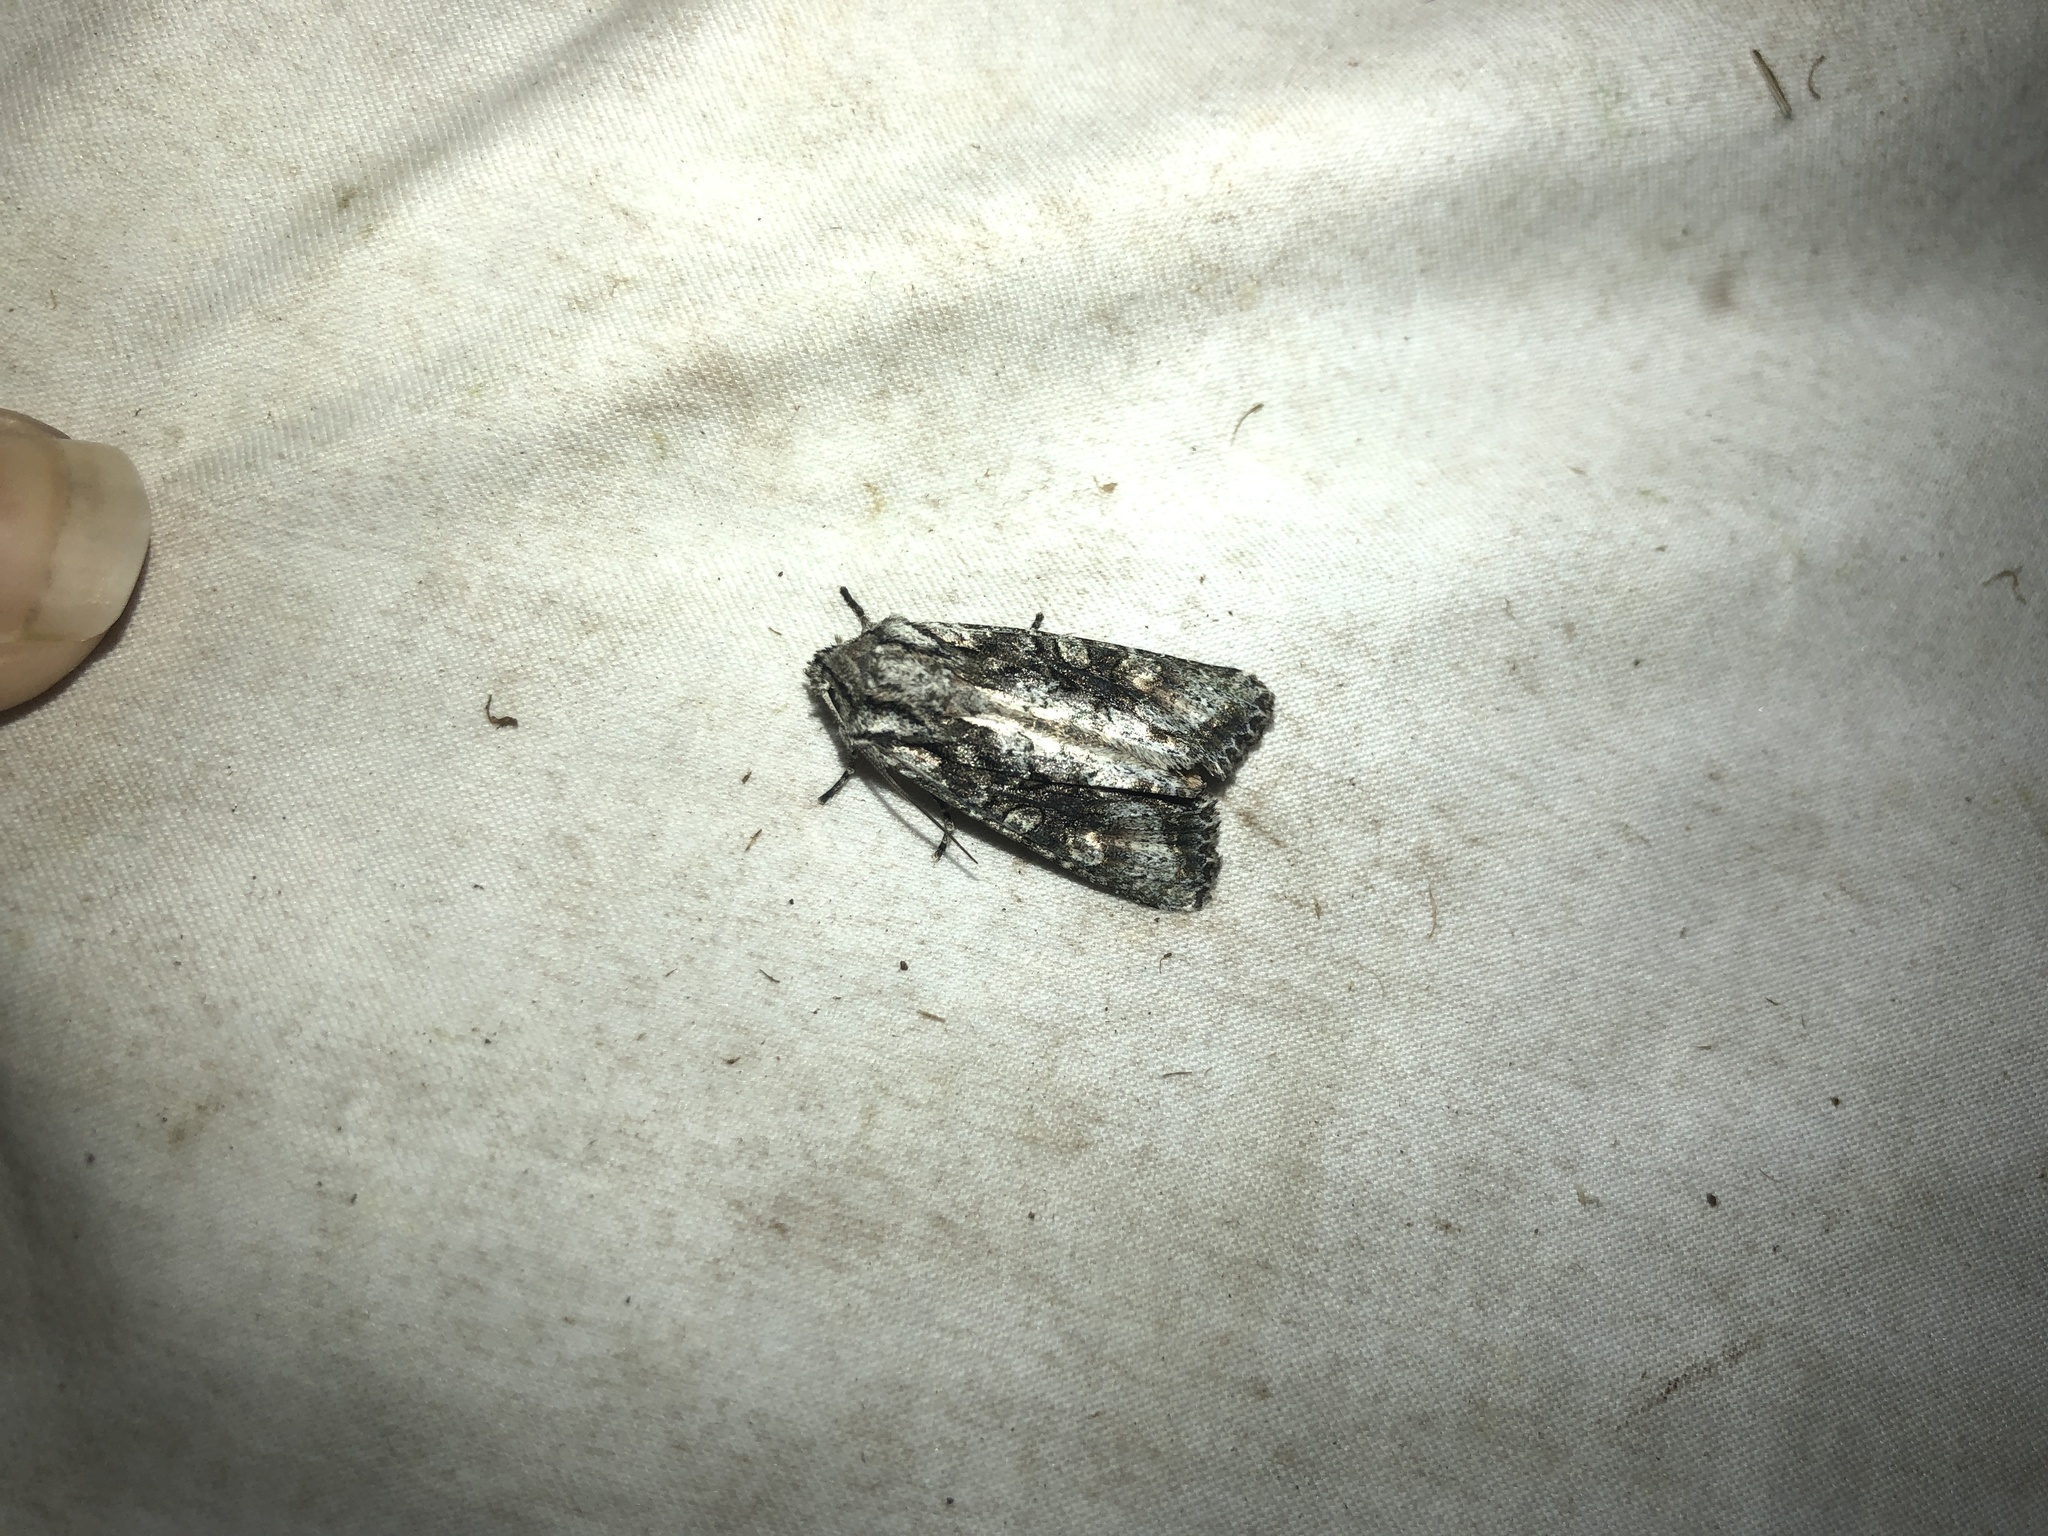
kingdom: Animalia
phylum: Arthropoda
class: Insecta
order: Lepidoptera
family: Noctuidae
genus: Ichneutica
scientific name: Ichneutica mutans
